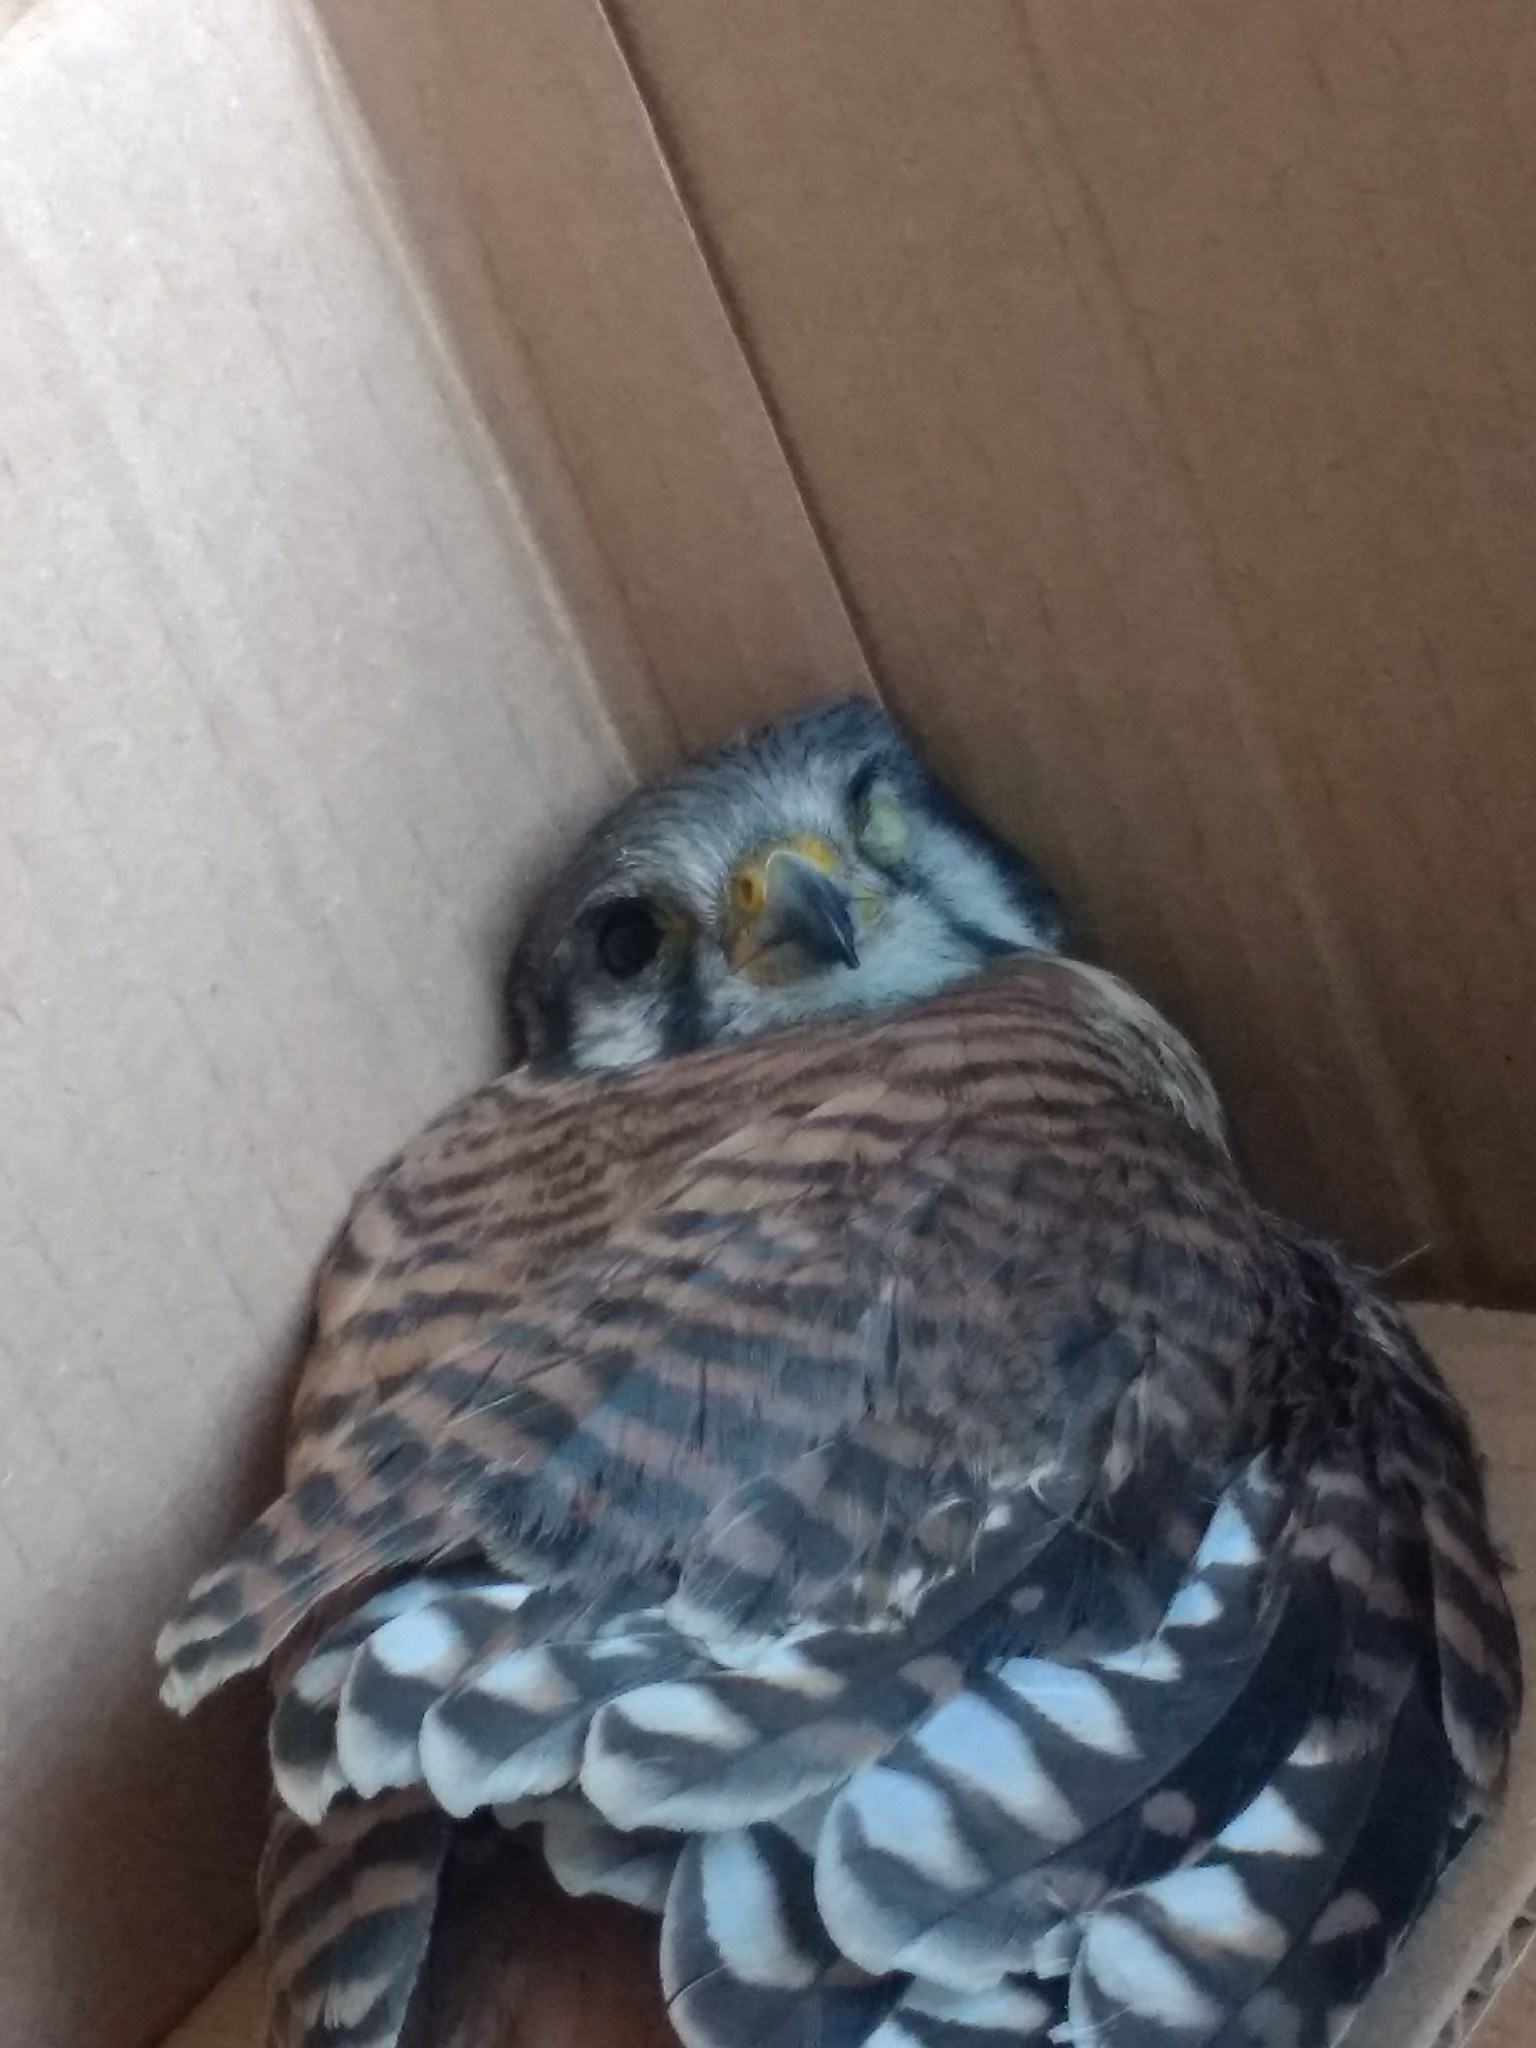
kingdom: Animalia
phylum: Chordata
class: Aves
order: Falconiformes
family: Falconidae
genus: Falco
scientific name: Falco sparverius
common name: American kestrel
